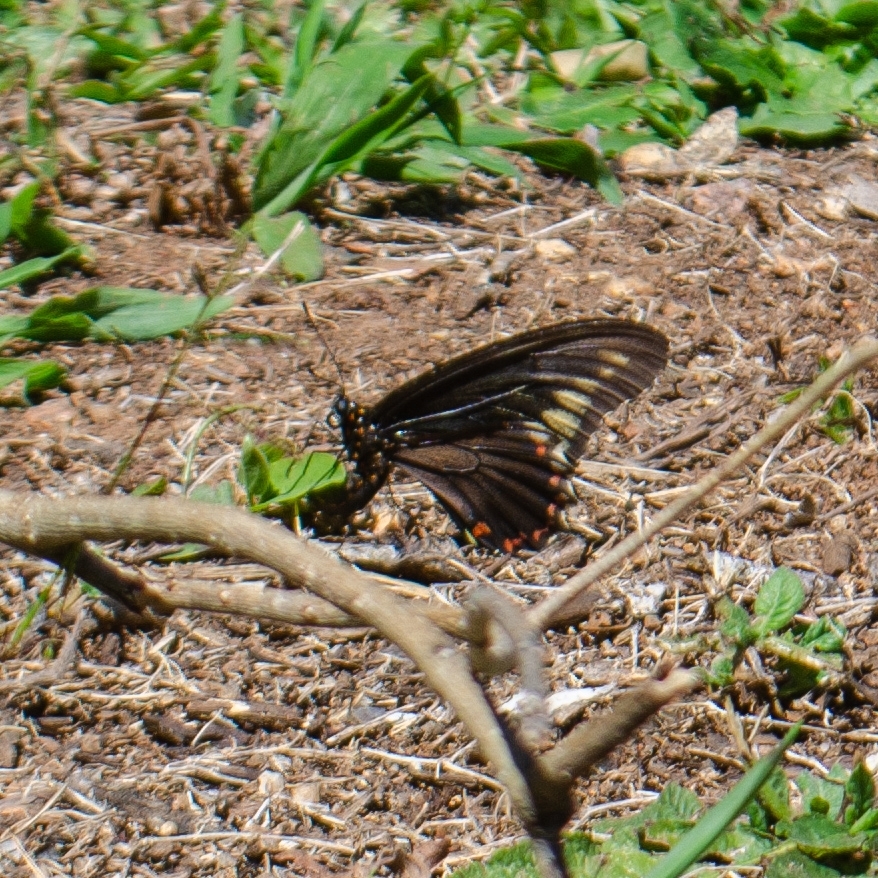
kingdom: Animalia
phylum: Arthropoda
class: Insecta
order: Lepidoptera
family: Papilionidae
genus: Battus
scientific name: Battus polydamas
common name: Polydamas swallowtail
